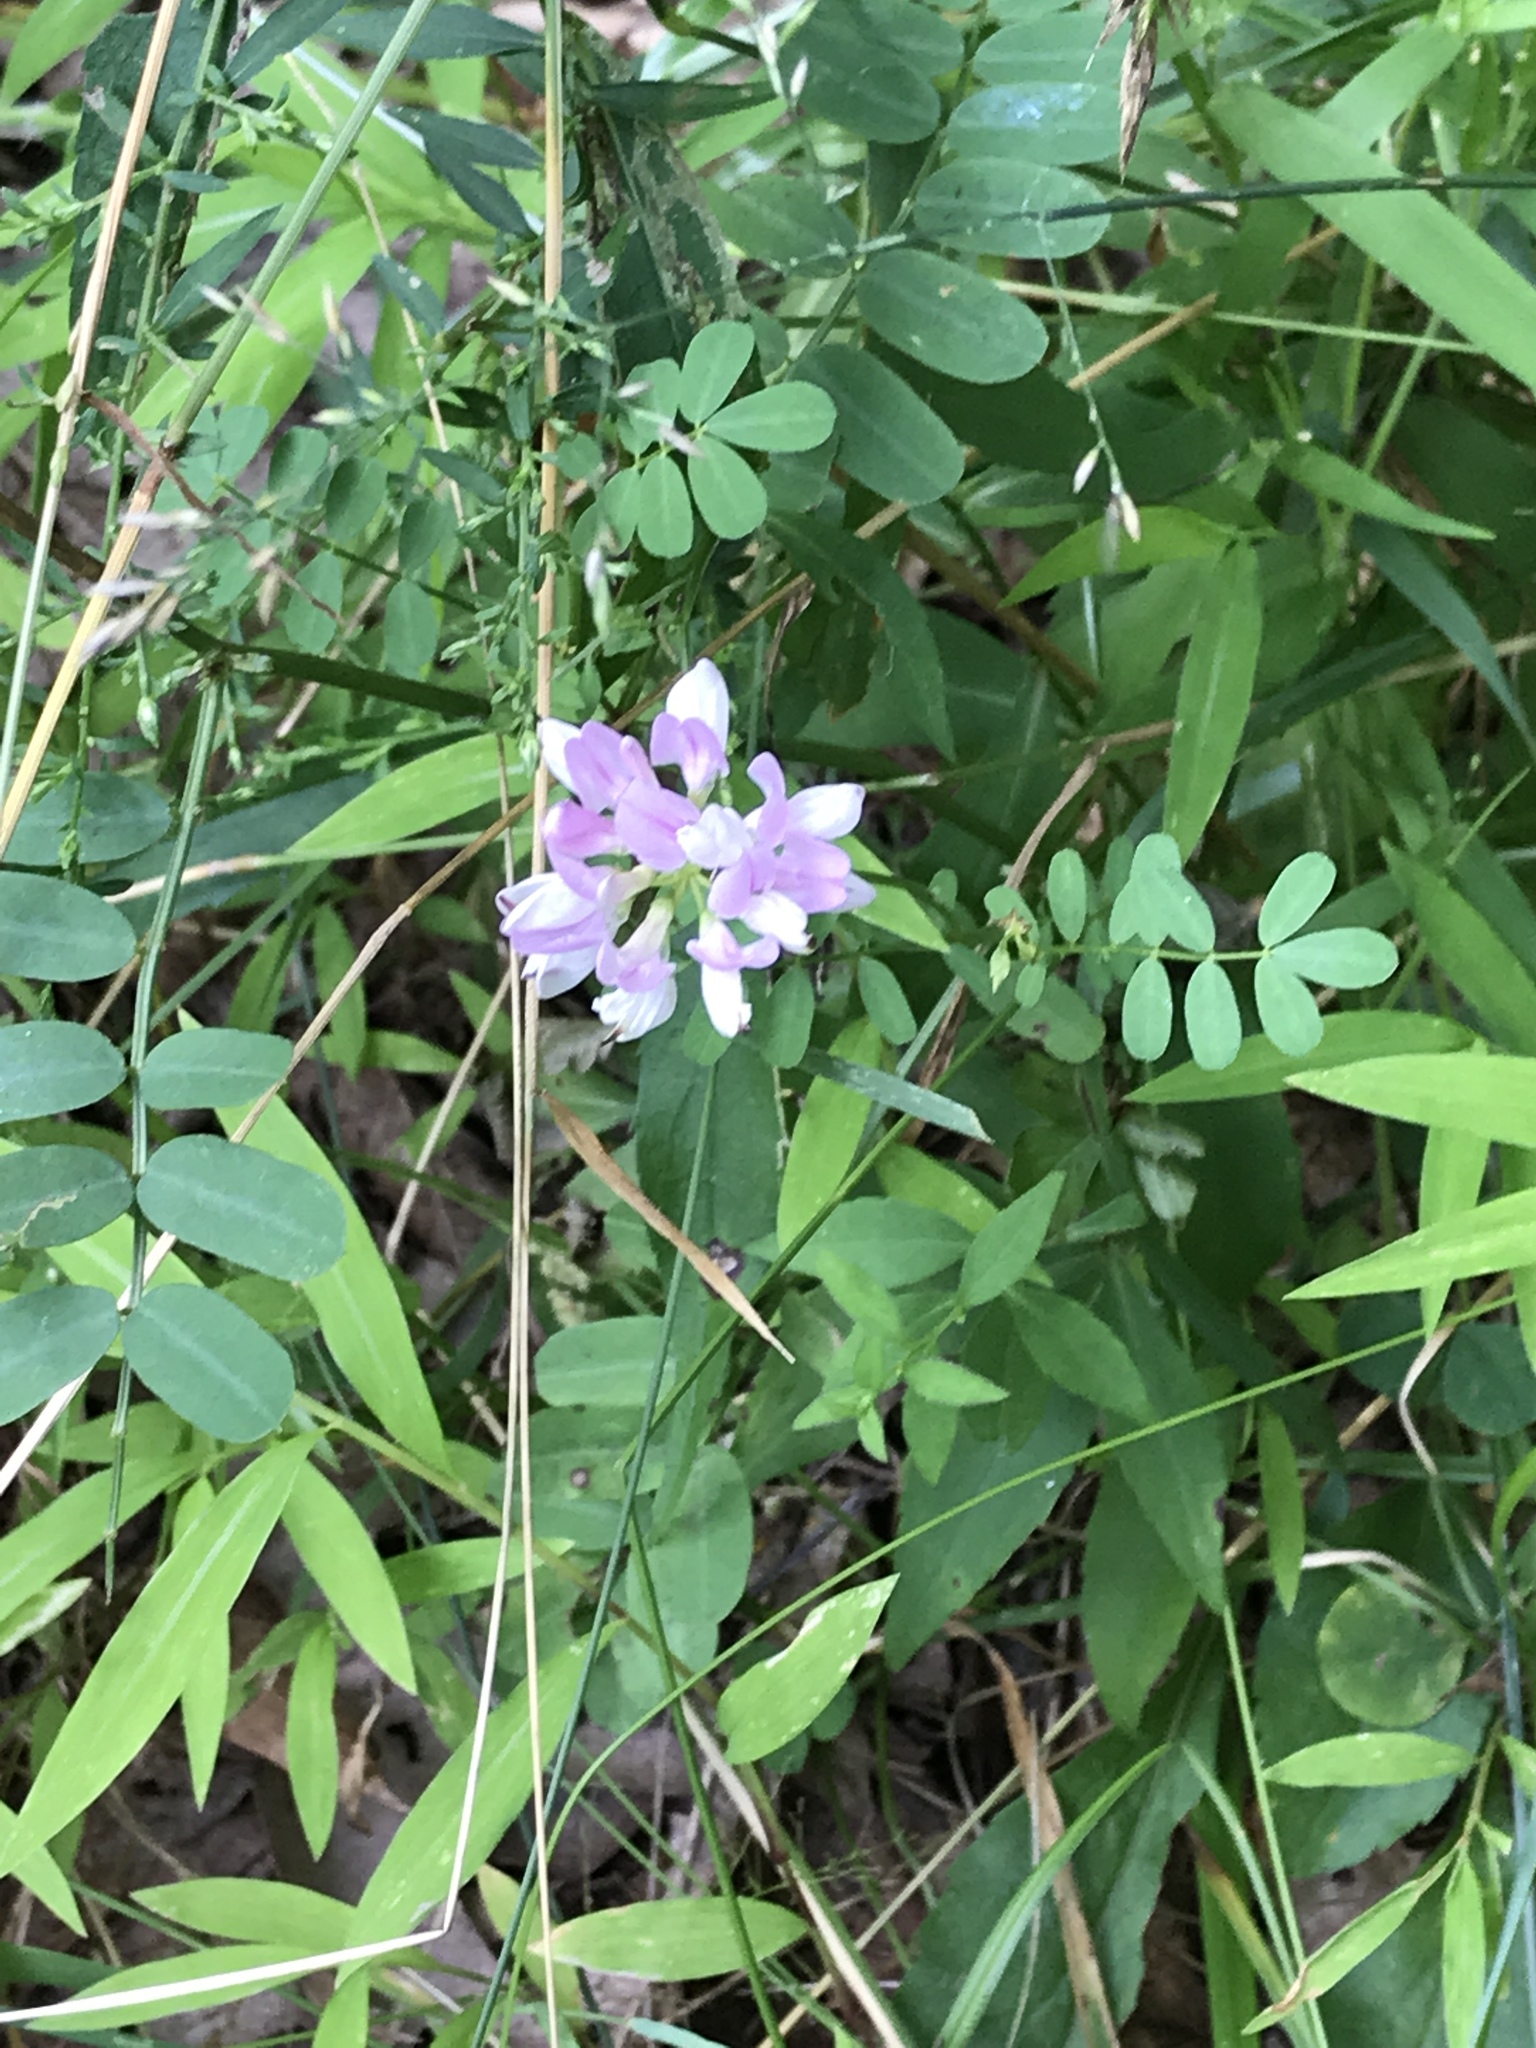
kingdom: Plantae
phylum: Tracheophyta
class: Magnoliopsida
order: Fabales
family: Fabaceae
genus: Coronilla
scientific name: Coronilla varia
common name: Crownvetch
